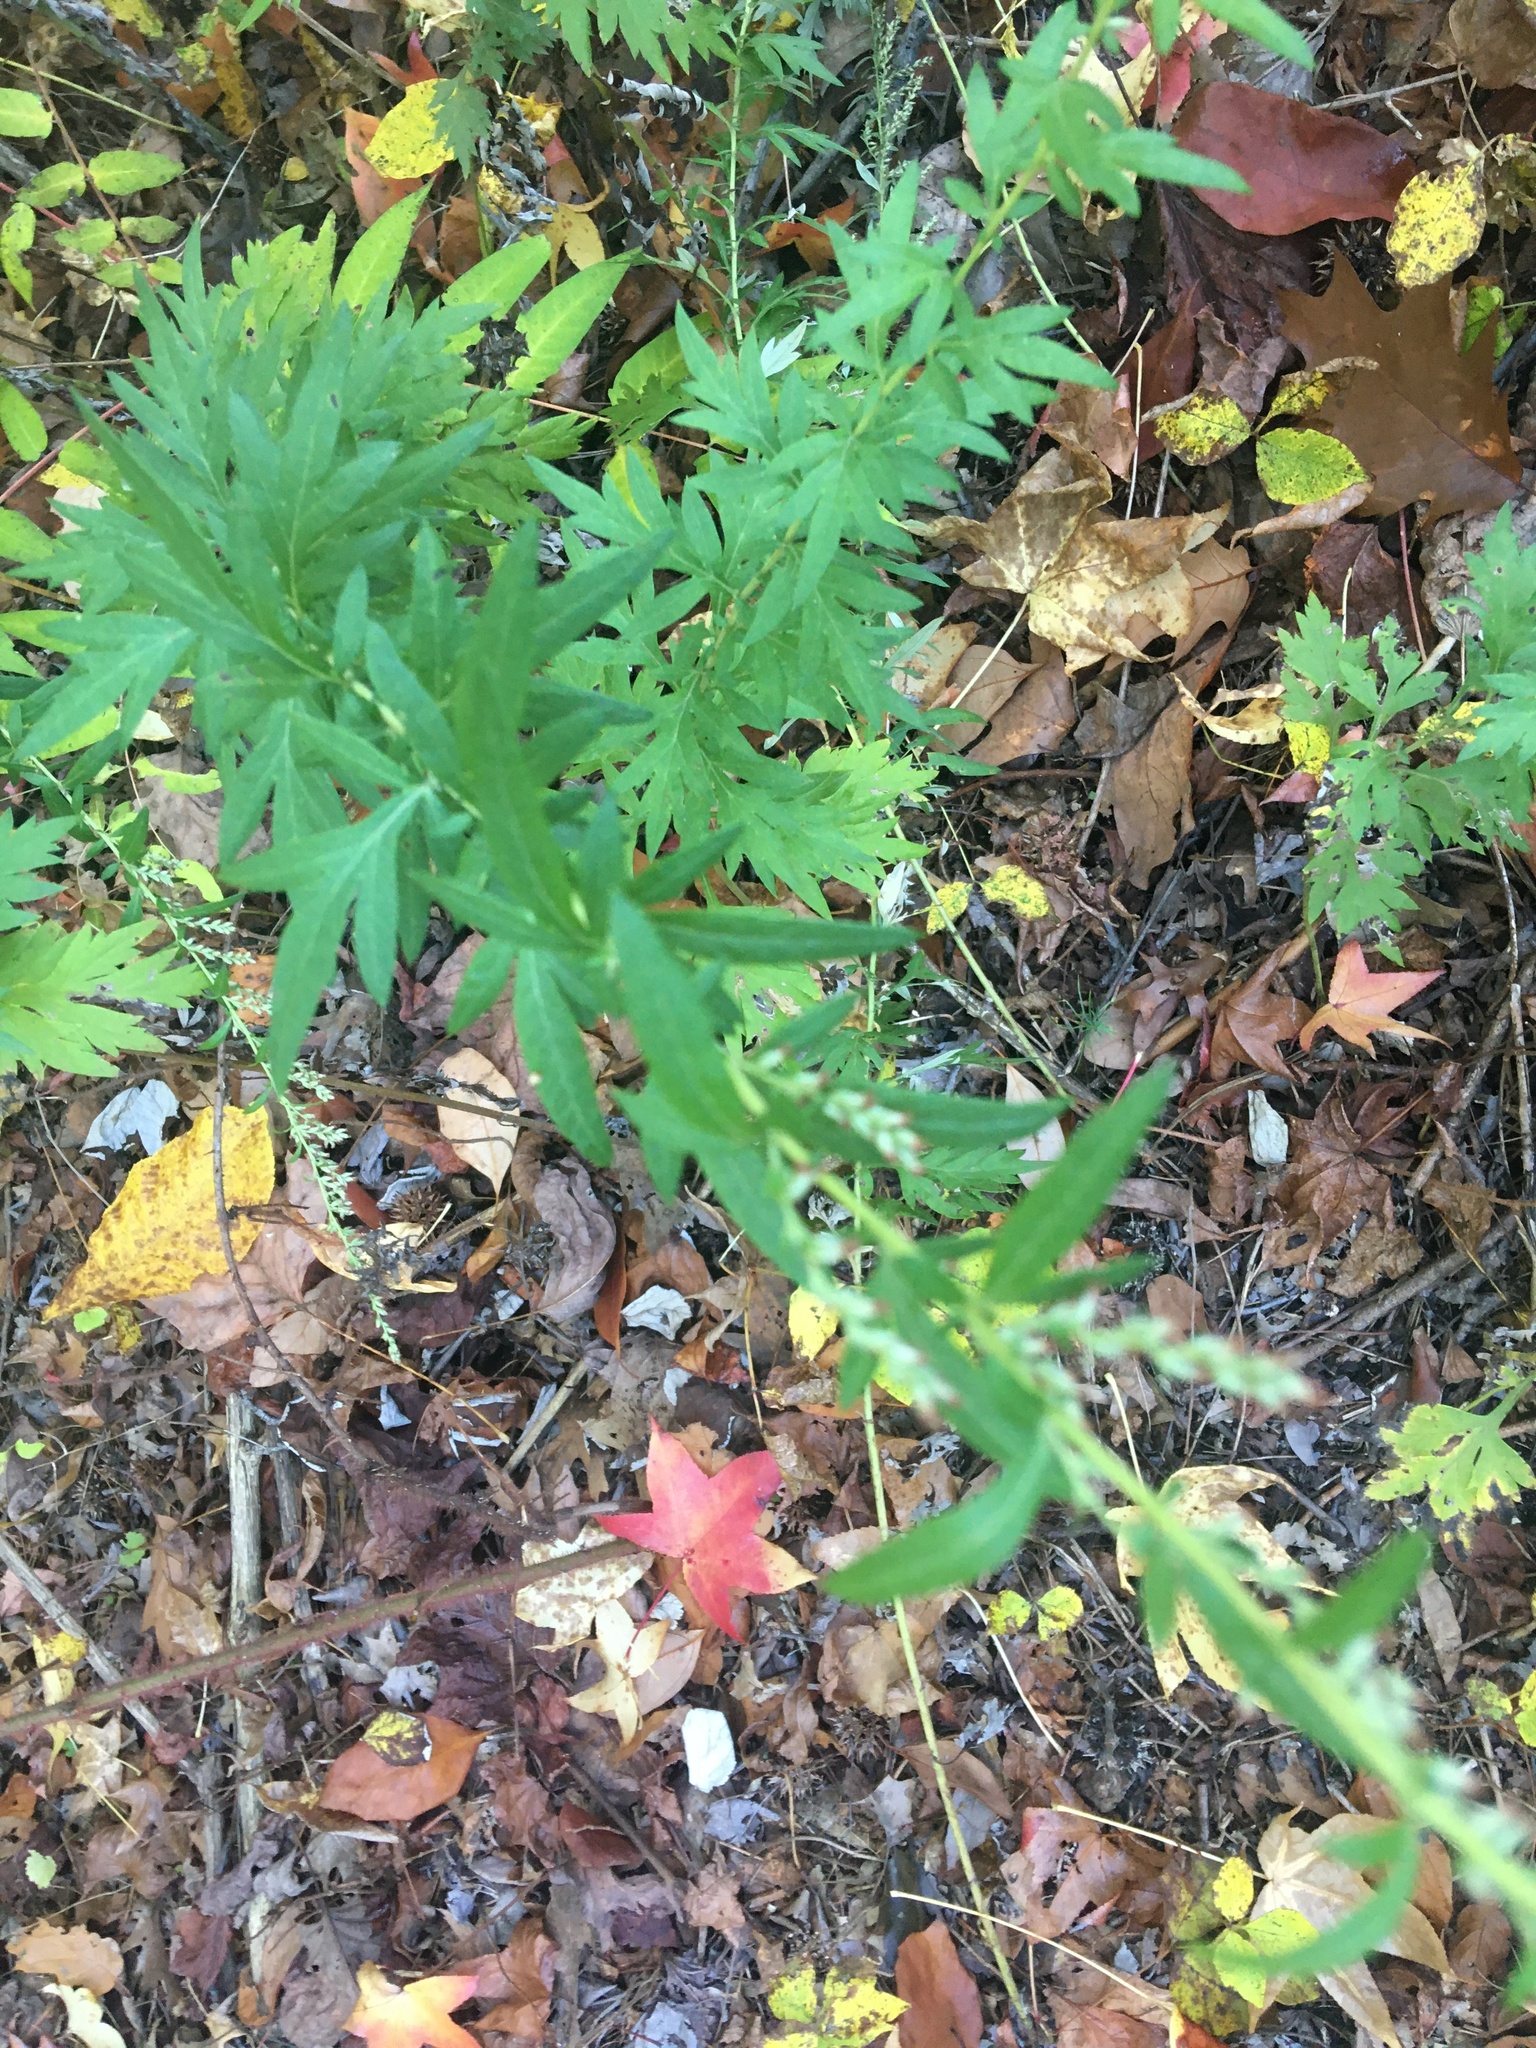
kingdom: Plantae
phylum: Tracheophyta
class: Magnoliopsida
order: Asterales
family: Asteraceae
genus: Artemisia
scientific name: Artemisia vulgaris
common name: Mugwort
